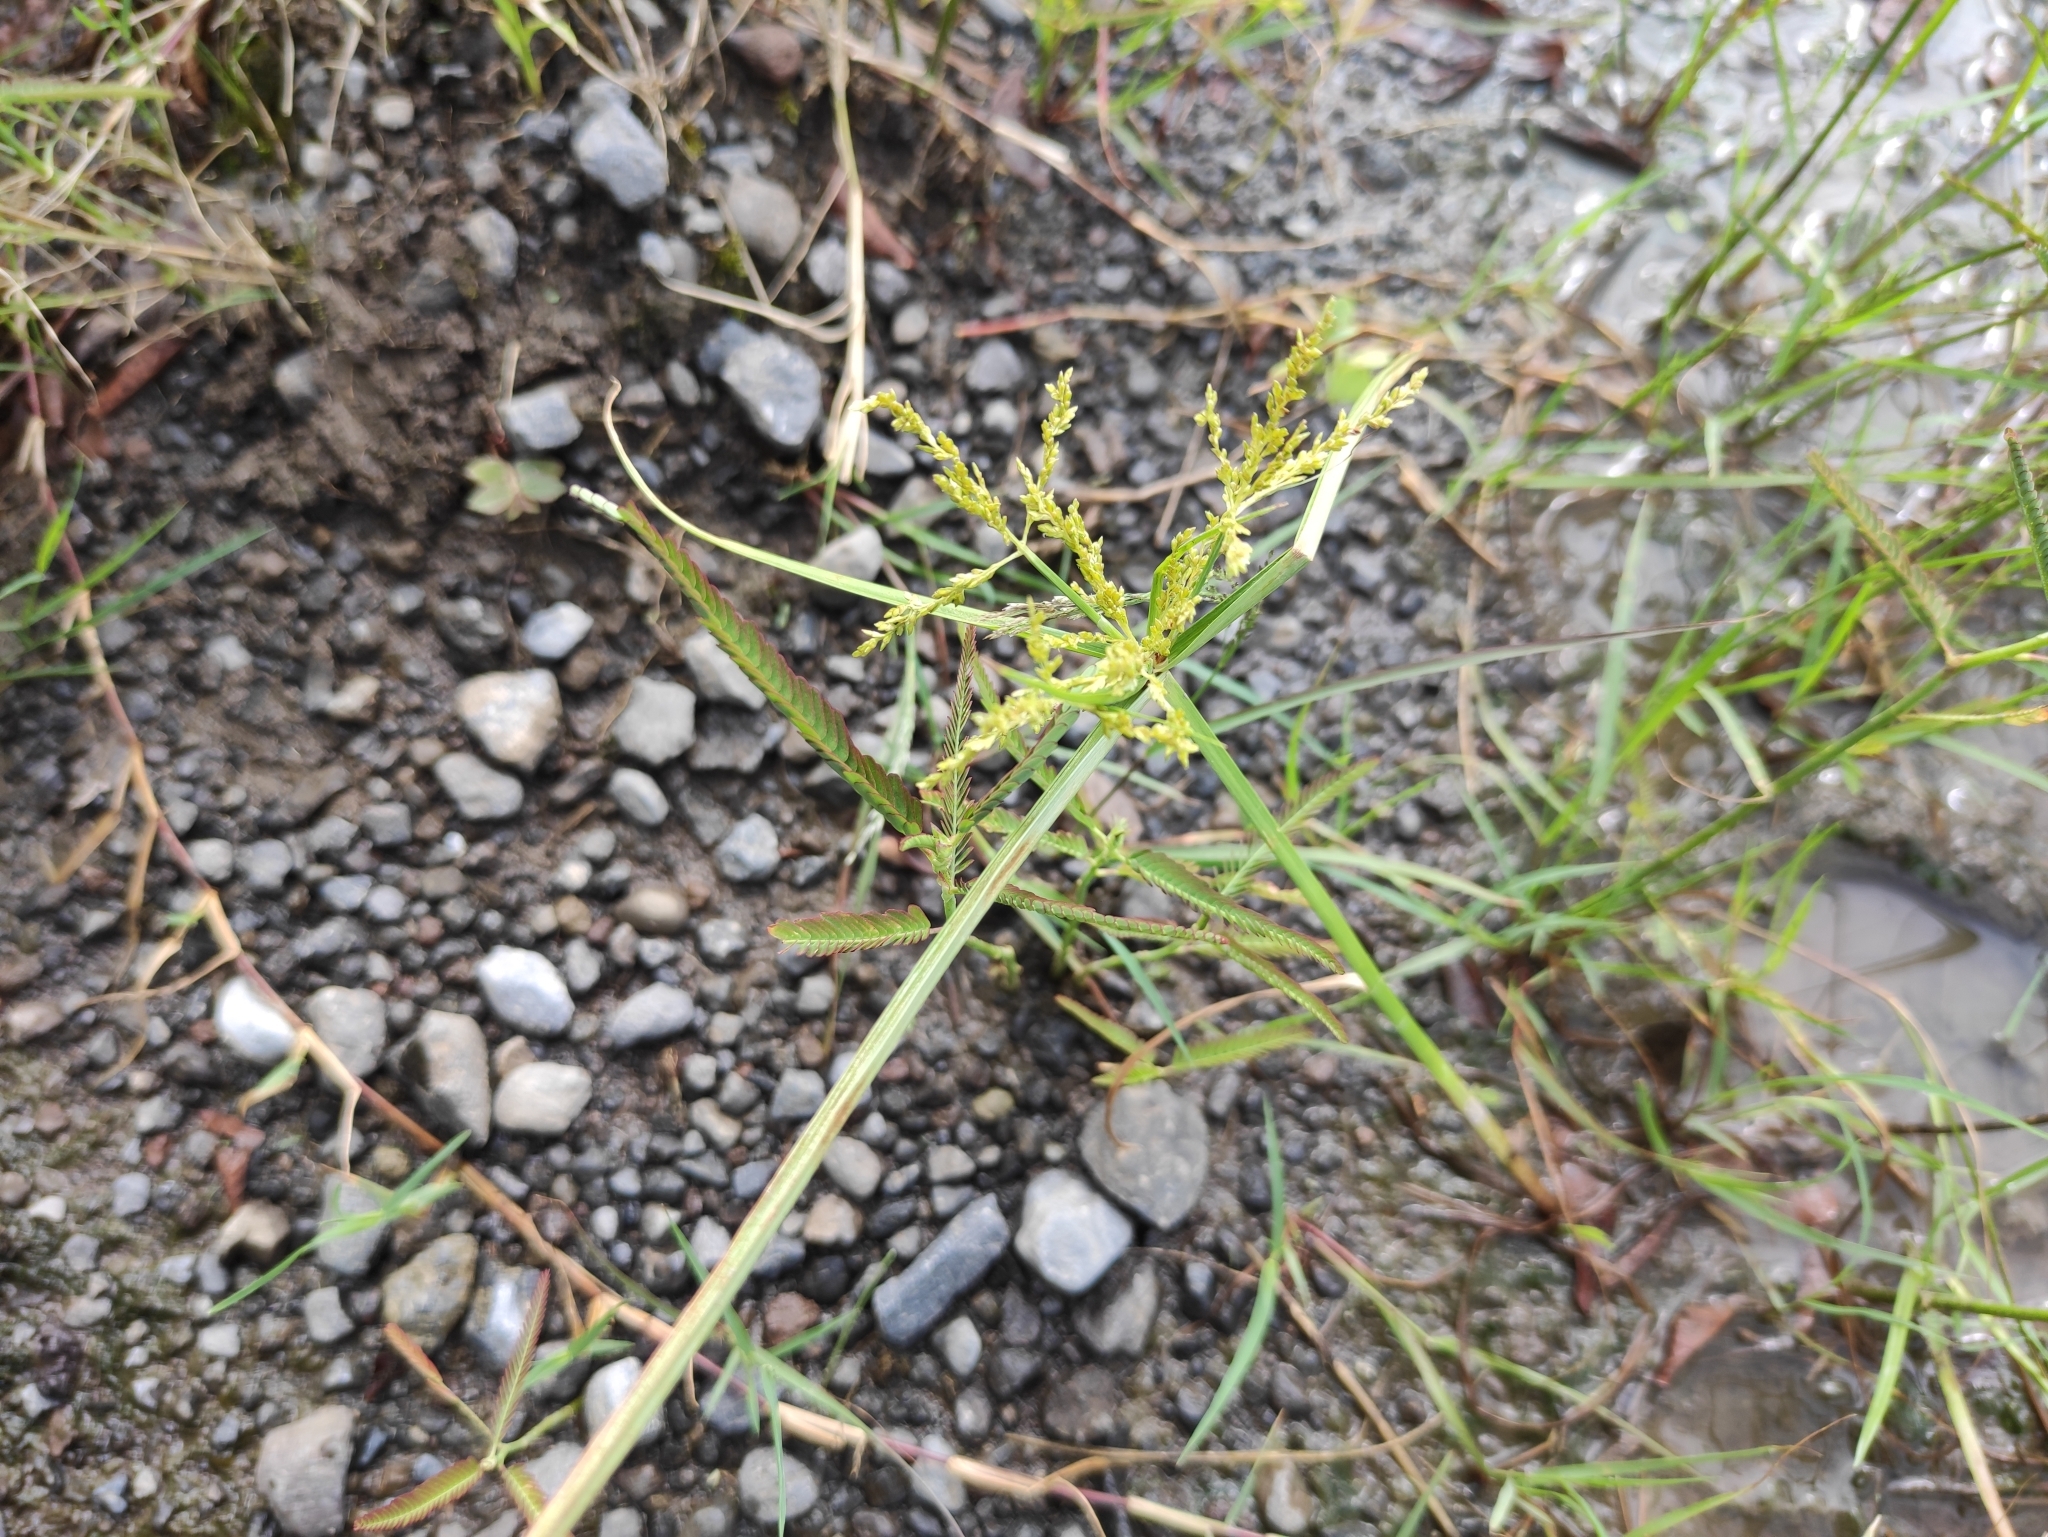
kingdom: Plantae
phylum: Tracheophyta
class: Liliopsida
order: Poales
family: Cyperaceae
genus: Cyperus
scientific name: Cyperus iria
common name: Ricefield flatsedge
